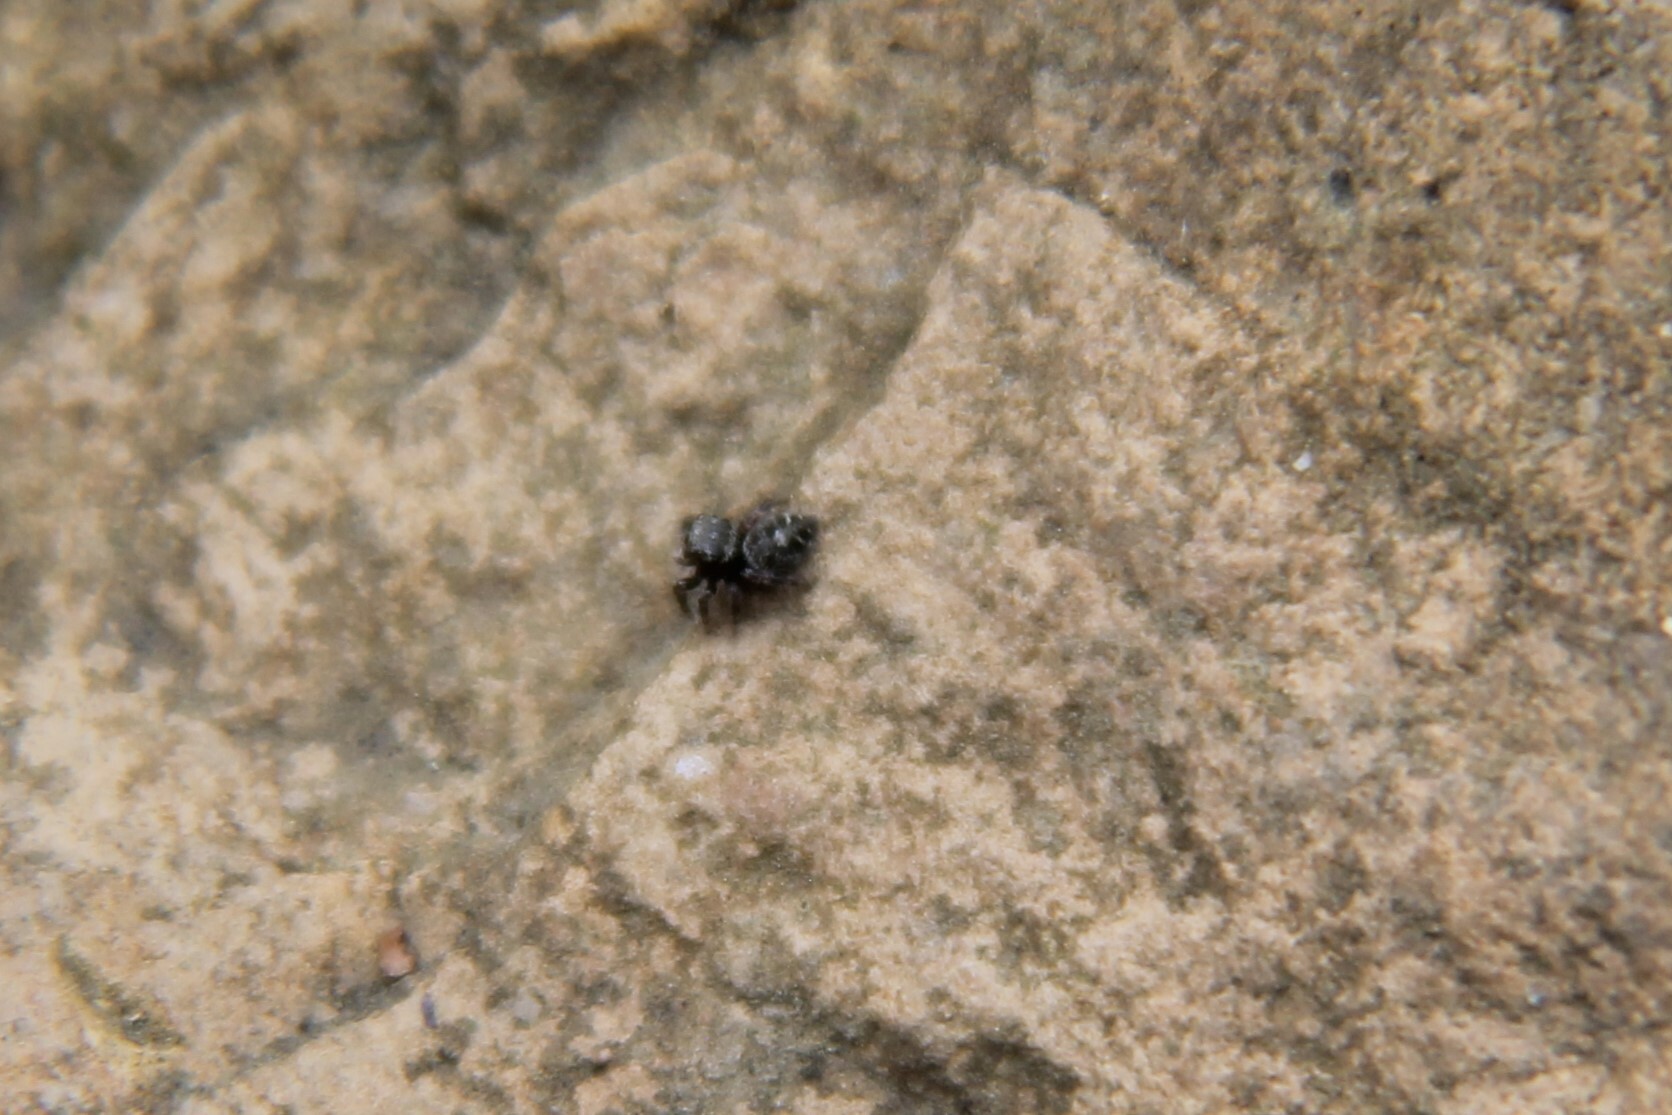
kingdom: Animalia
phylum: Arthropoda
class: Arachnida
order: Araneae
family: Salticidae
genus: Phidippus
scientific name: Phidippus putnami
